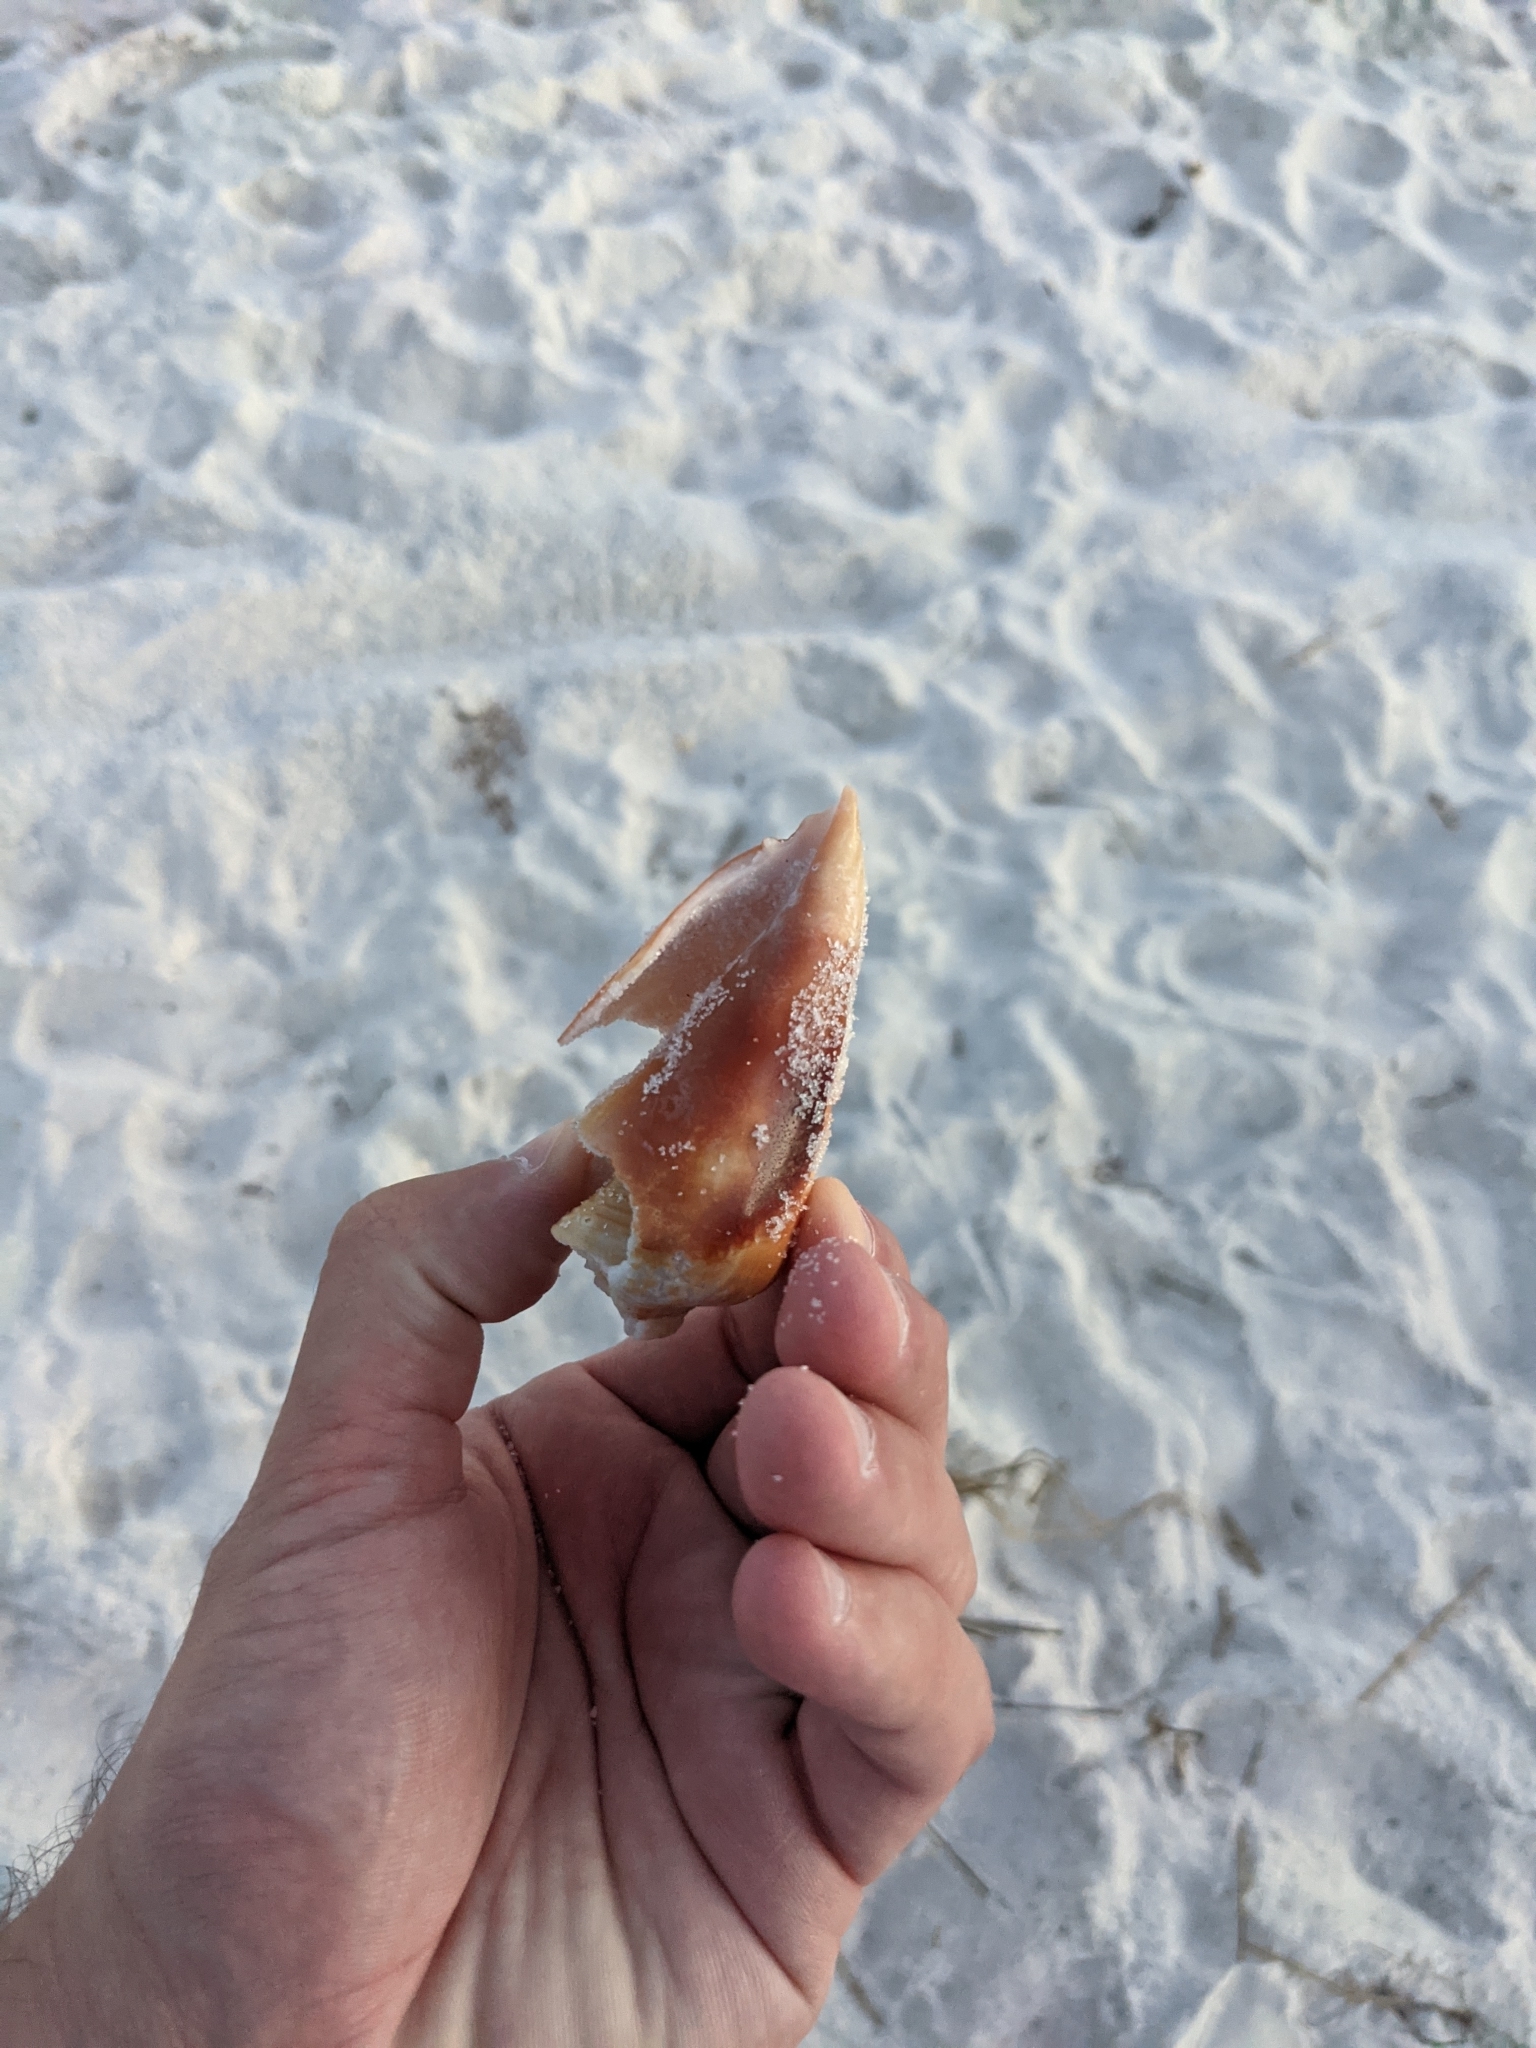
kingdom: Animalia
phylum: Mollusca
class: Gastropoda
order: Littorinimorpha
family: Strombidae
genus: Strombus
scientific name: Strombus alatus
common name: Florida fighting conch
